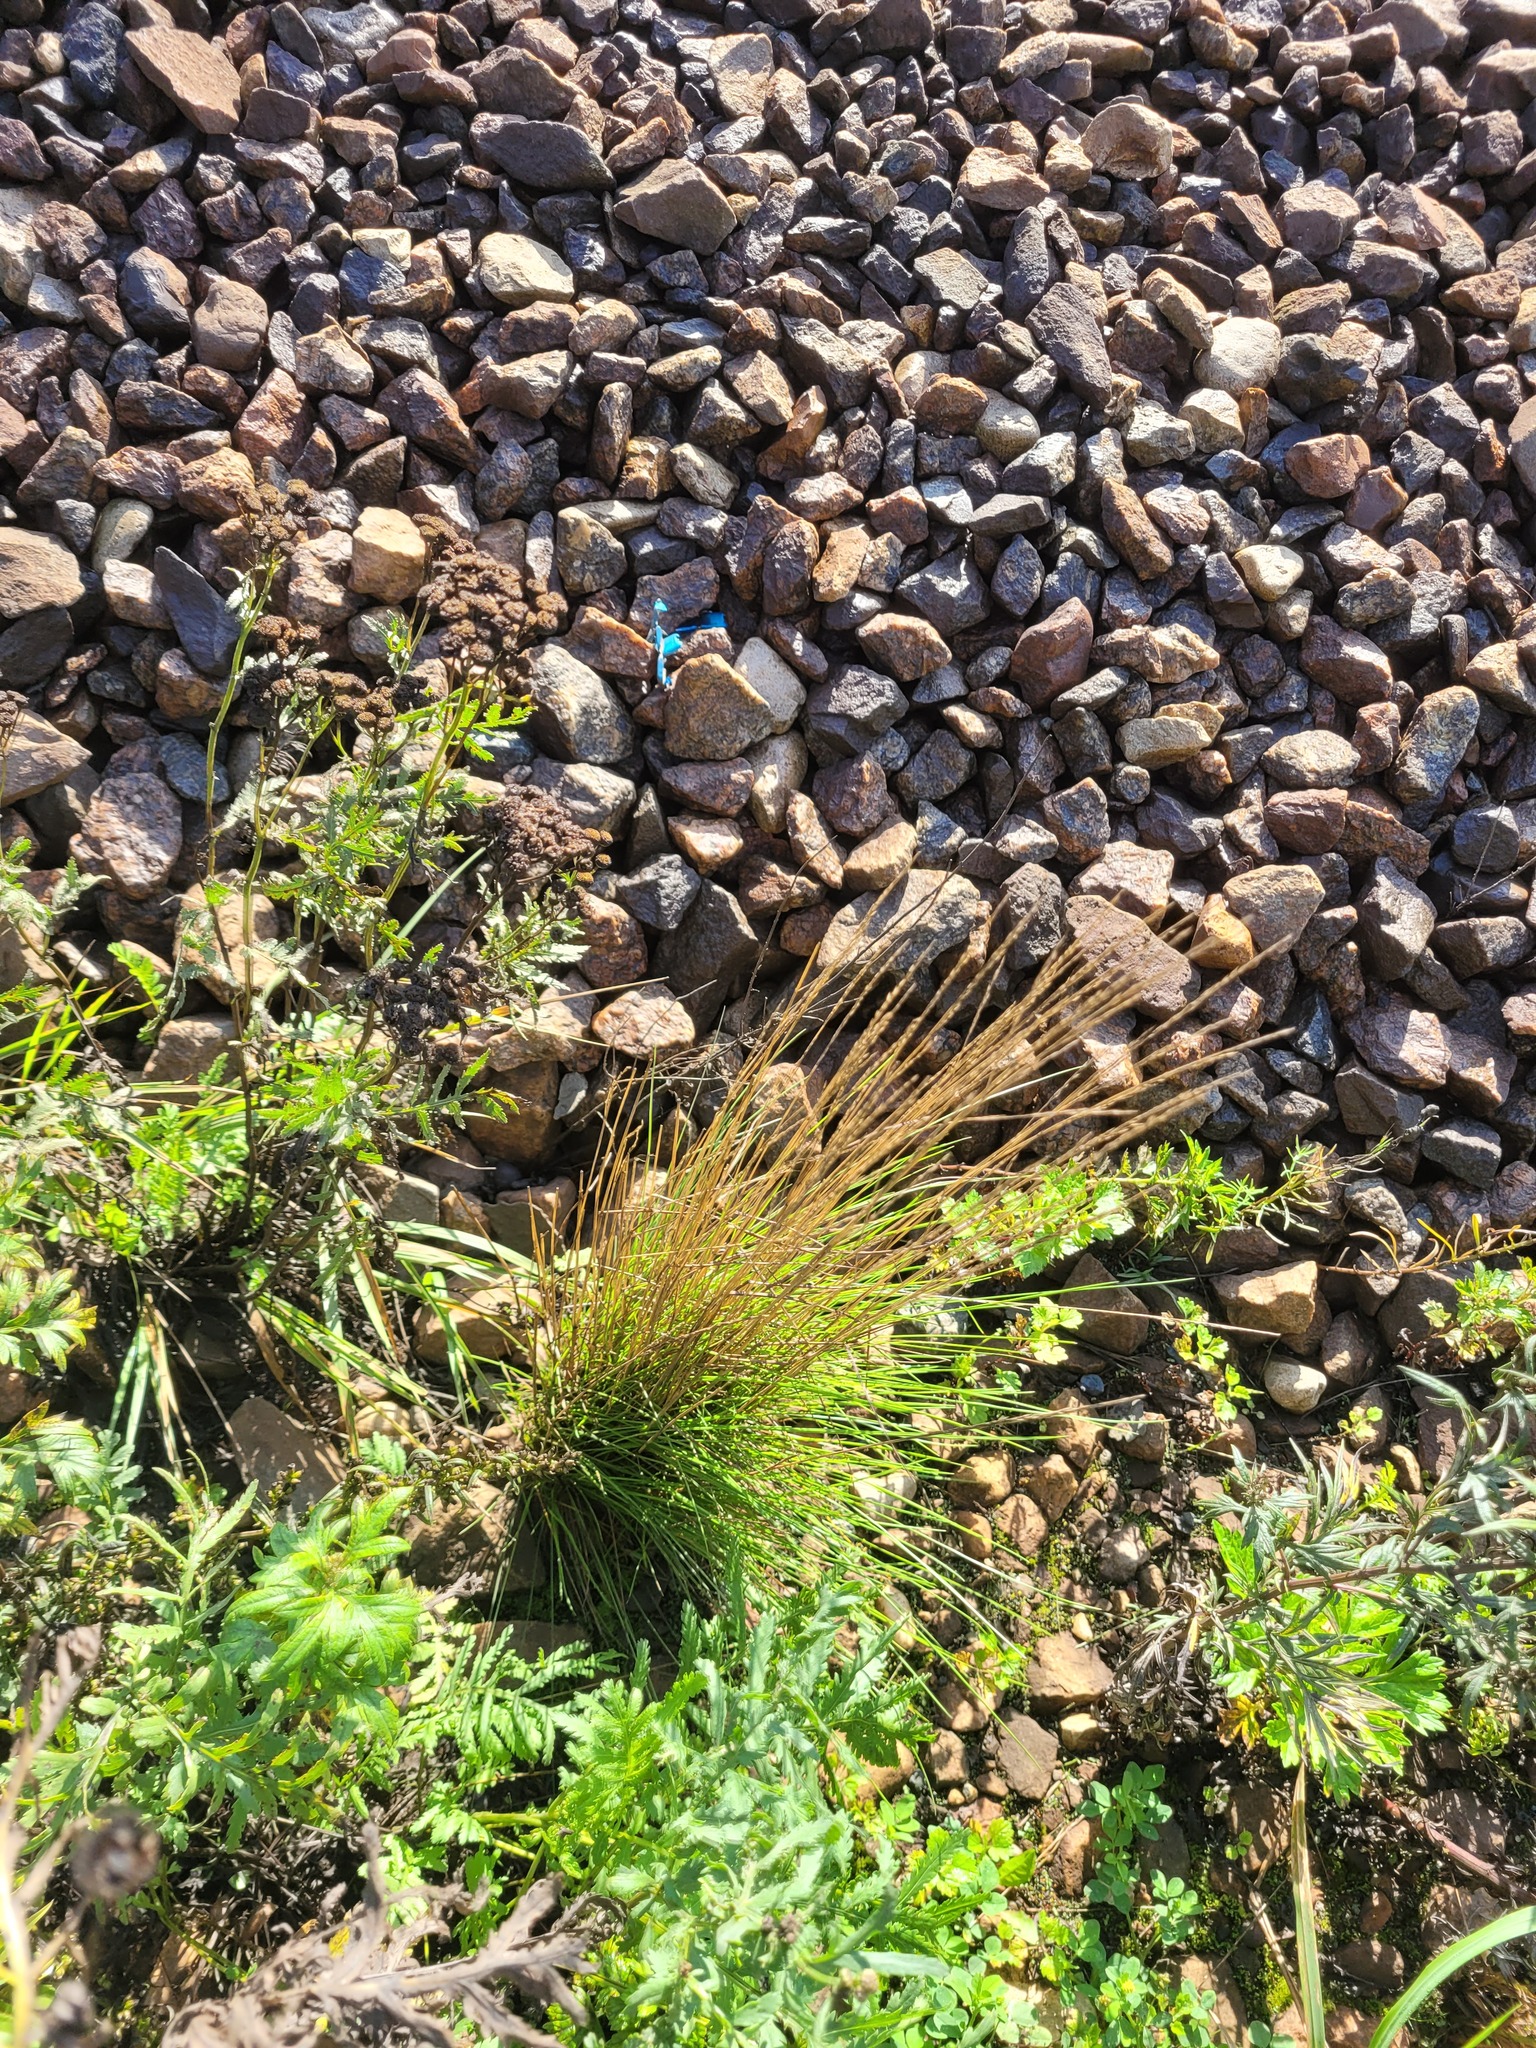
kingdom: Plantae
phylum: Tracheophyta
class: Liliopsida
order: Poales
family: Poaceae
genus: Lolium
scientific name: Lolium pratense
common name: Dover grass
